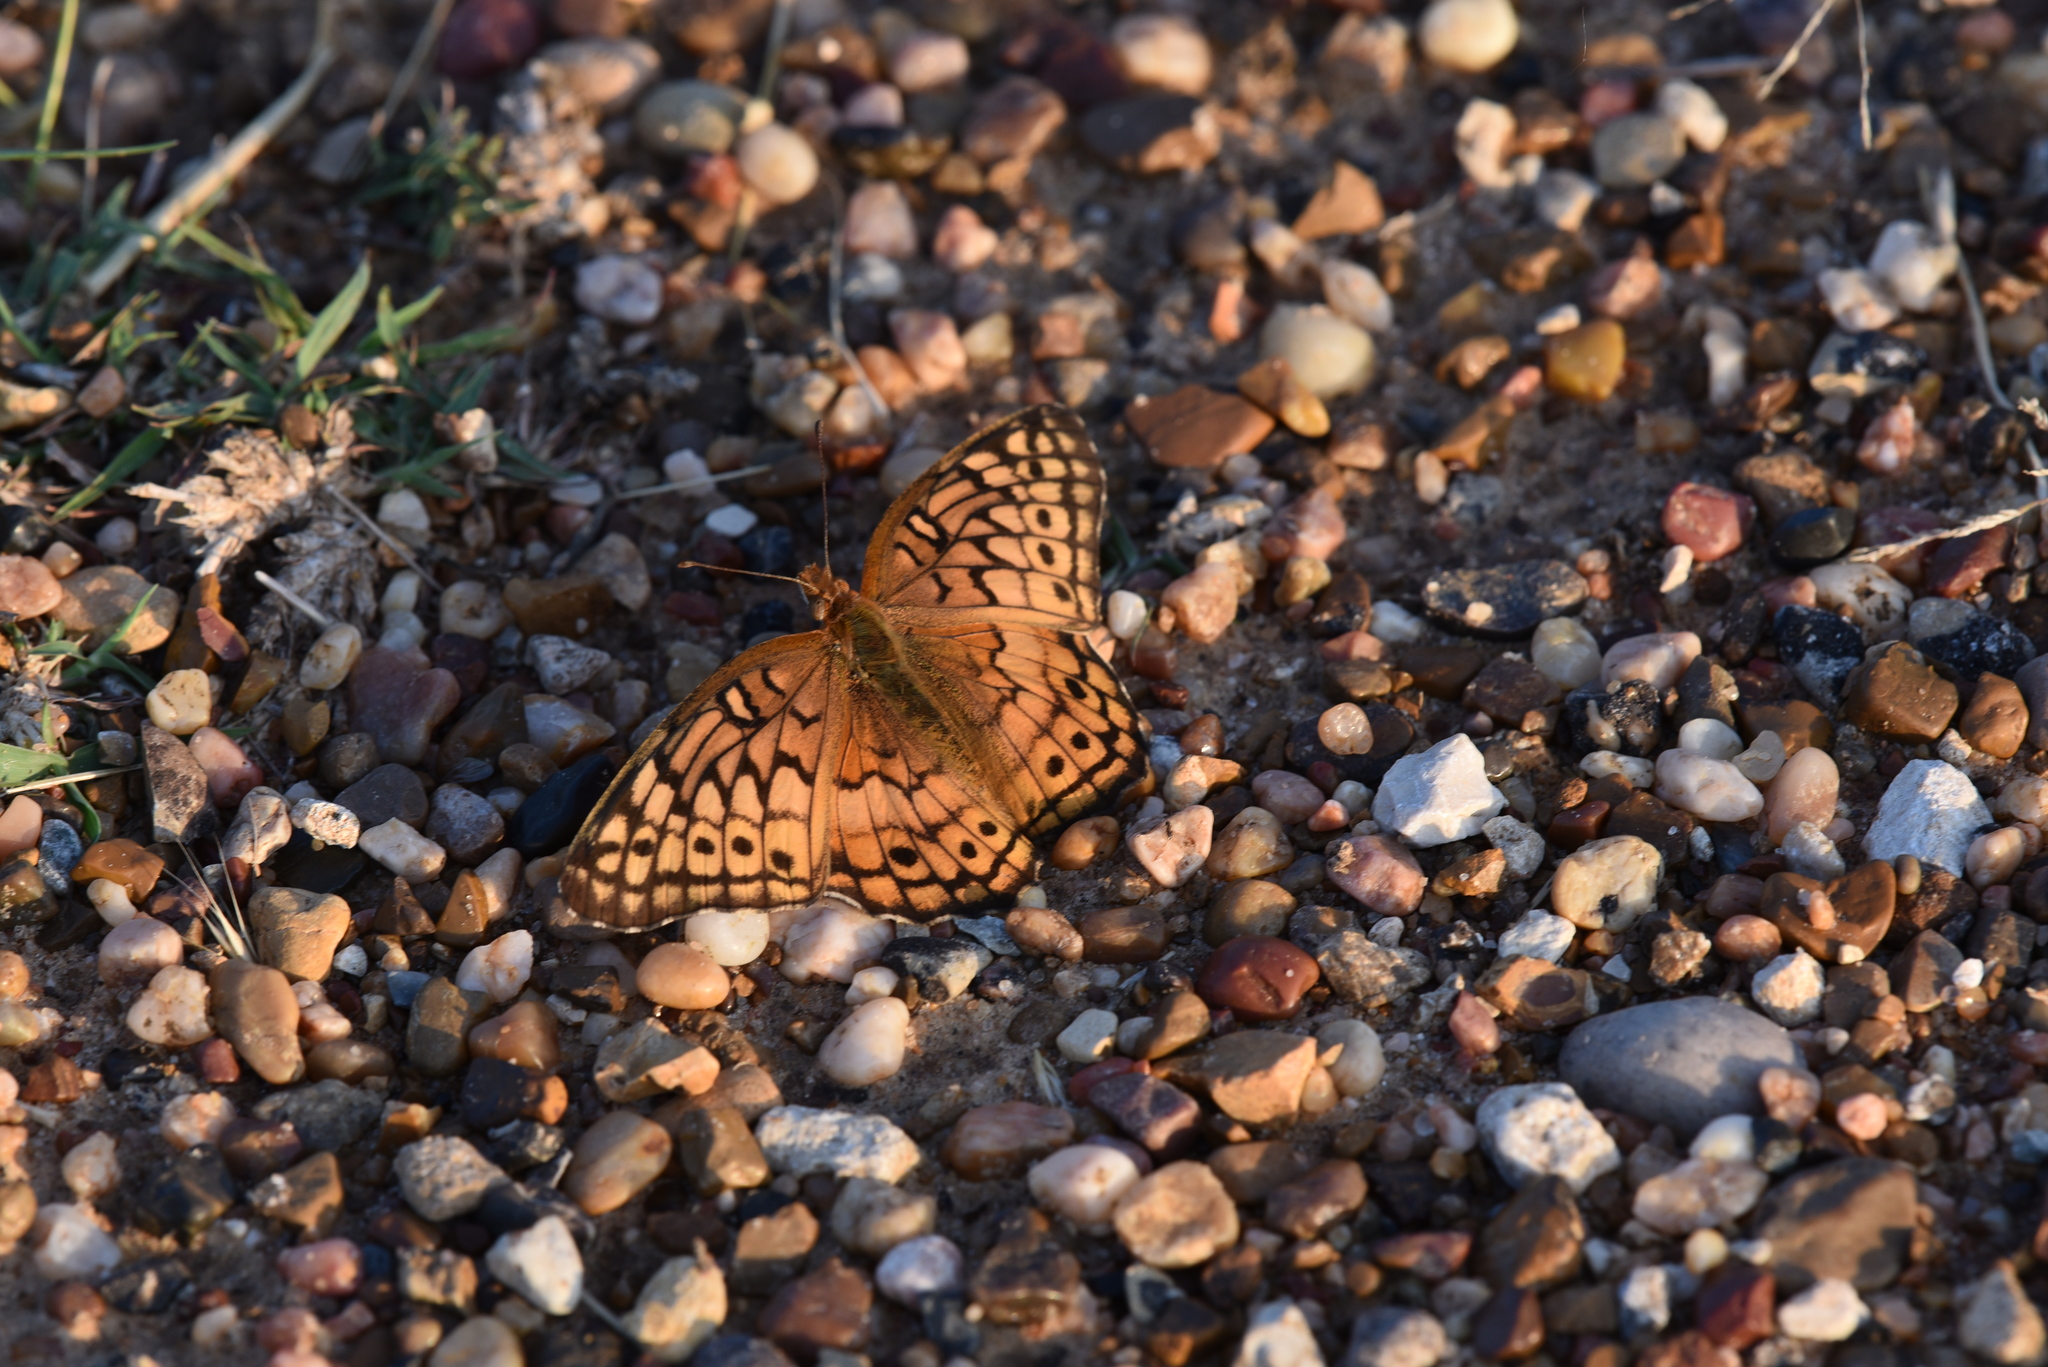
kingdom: Animalia
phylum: Arthropoda
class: Insecta
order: Lepidoptera
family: Nymphalidae
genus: Euptoieta
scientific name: Euptoieta claudia
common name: Variegated fritillary
